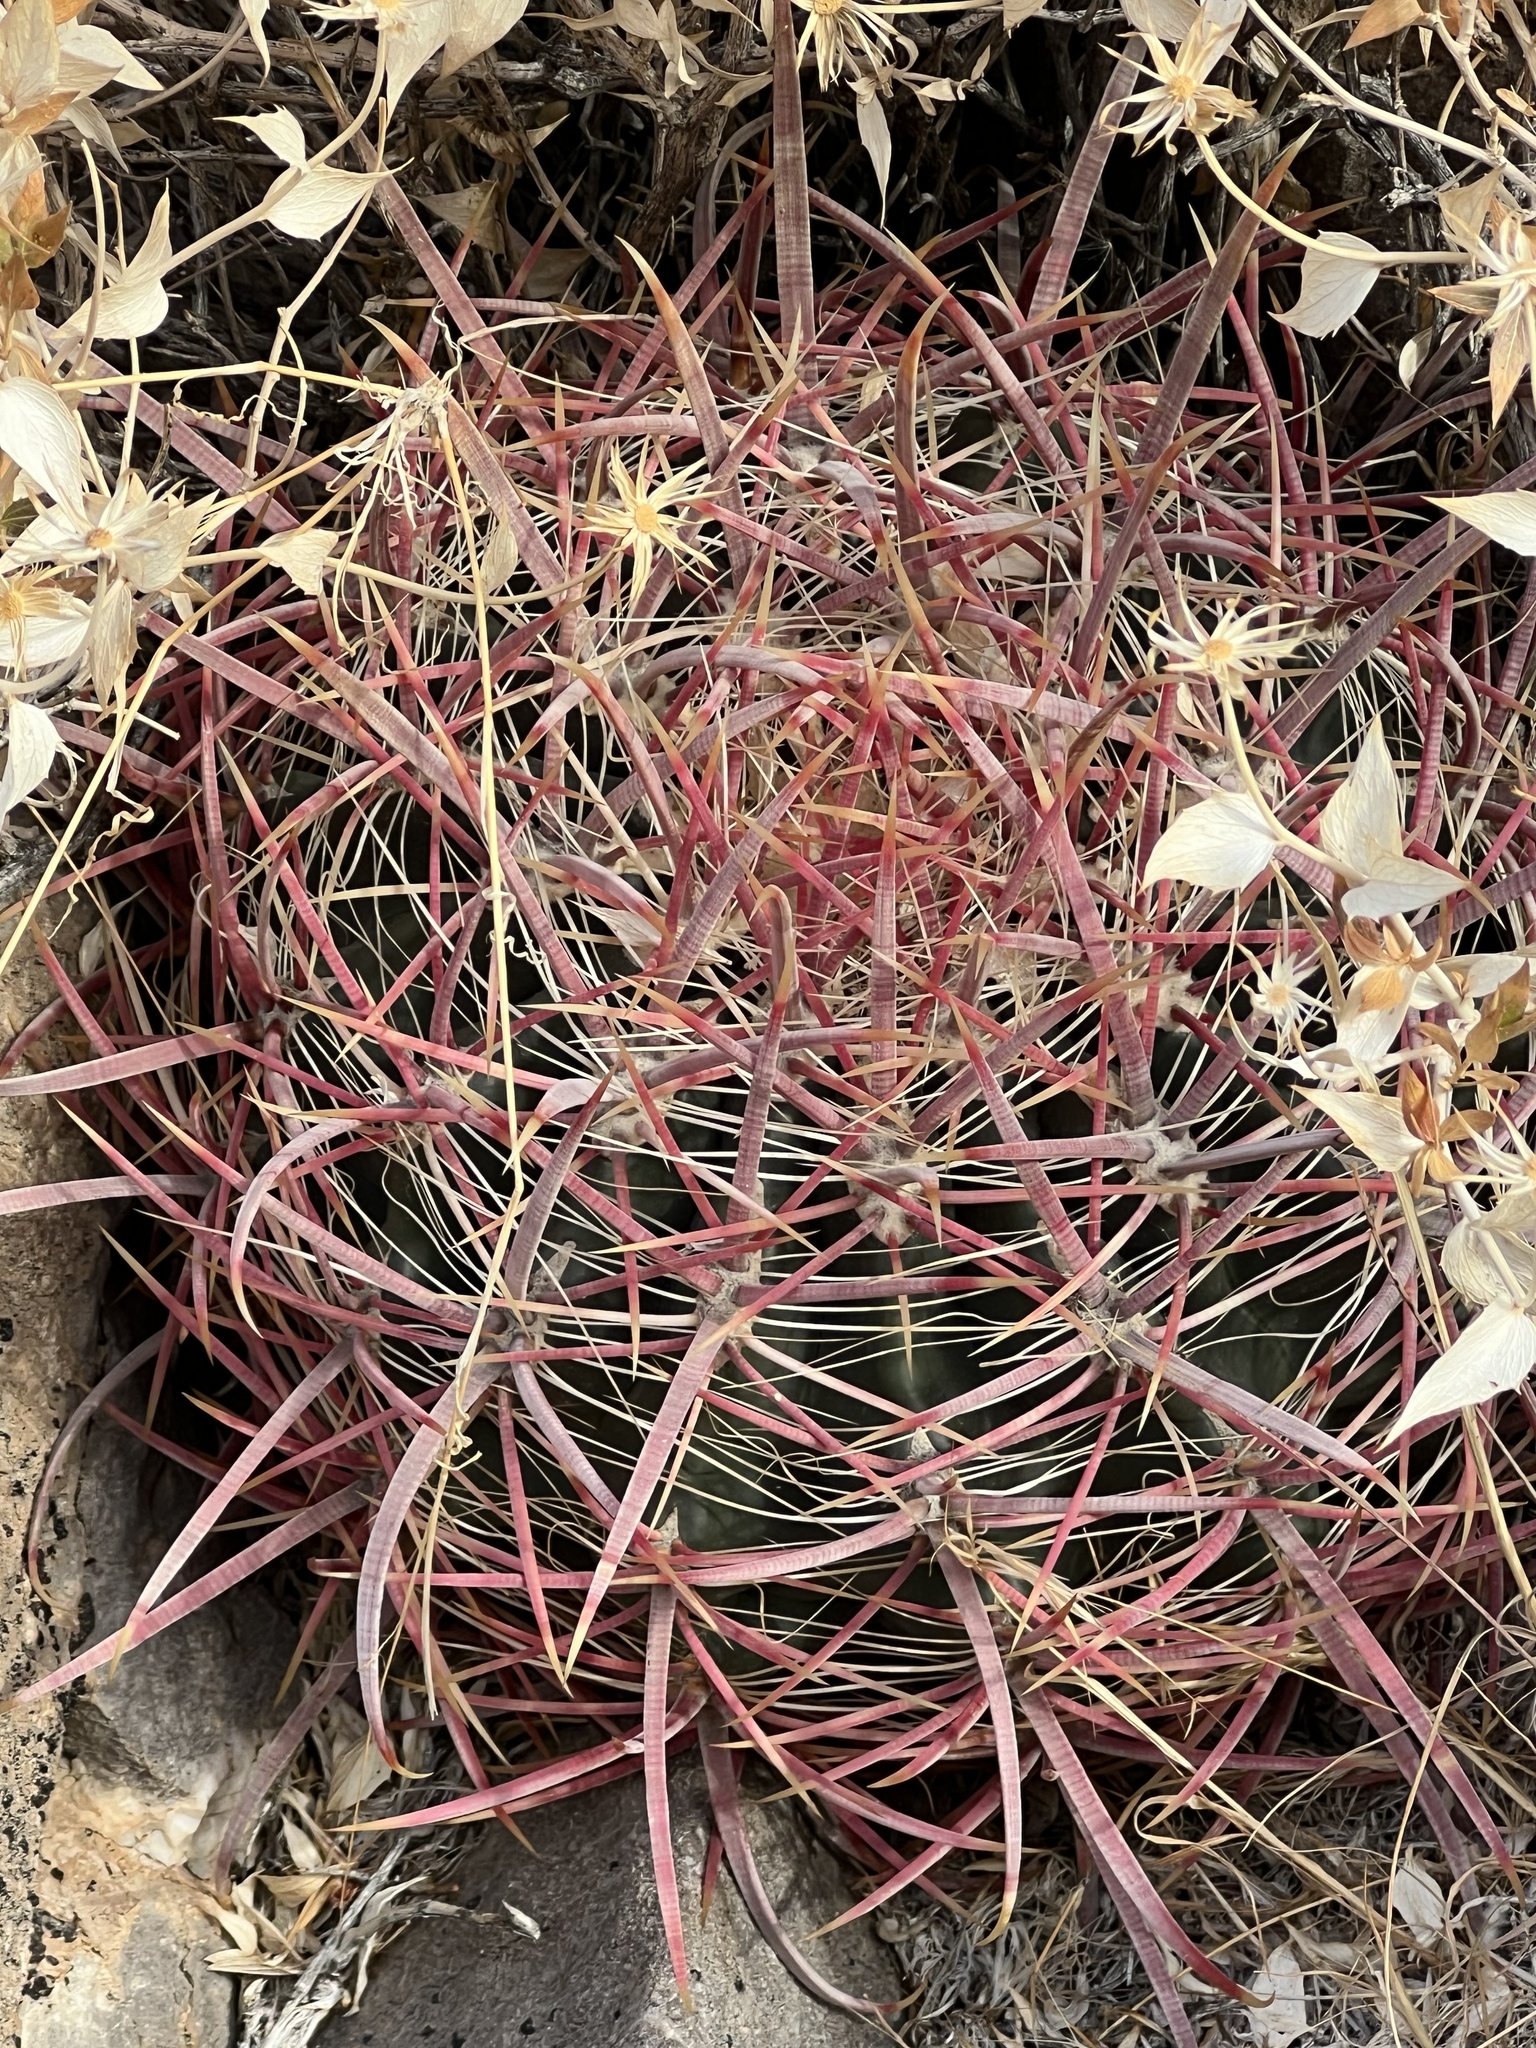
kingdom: Plantae
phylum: Tracheophyta
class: Magnoliopsida
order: Caryophyllales
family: Cactaceae
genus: Ferocactus
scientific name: Ferocactus cylindraceus
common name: California barrel cactus
